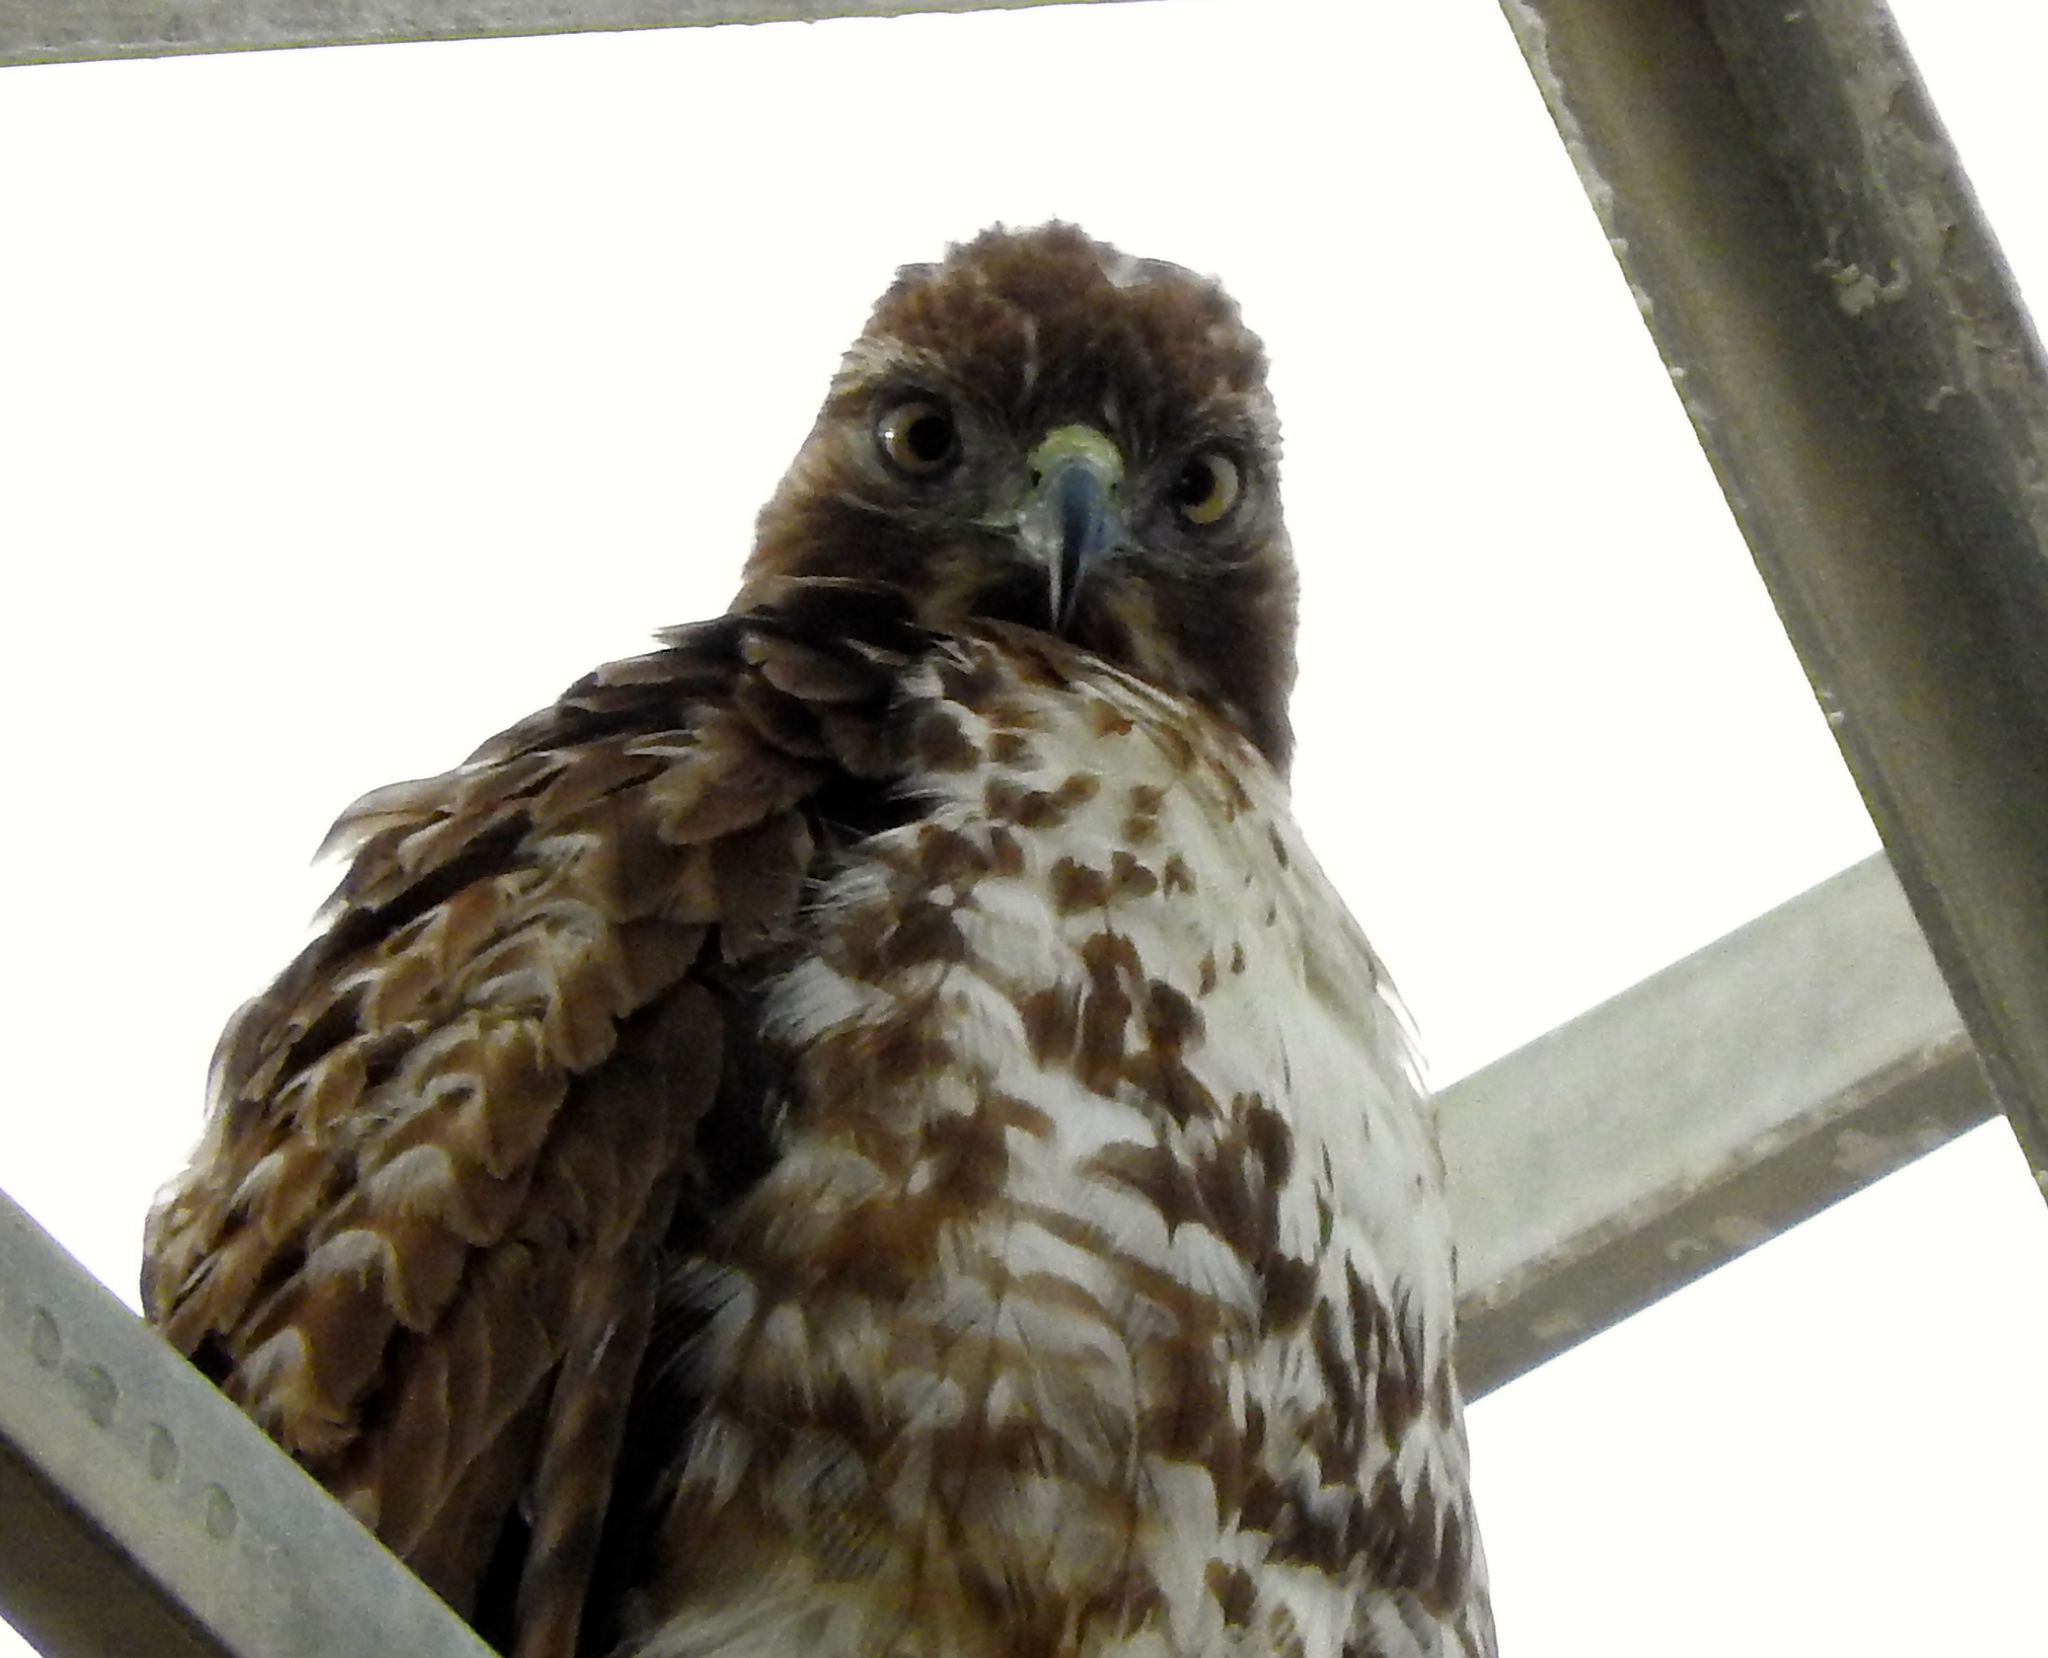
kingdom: Animalia
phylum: Chordata
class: Aves
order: Accipitriformes
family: Accipitridae
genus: Buteo
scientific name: Buteo jamaicensis
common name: Red-tailed hawk
